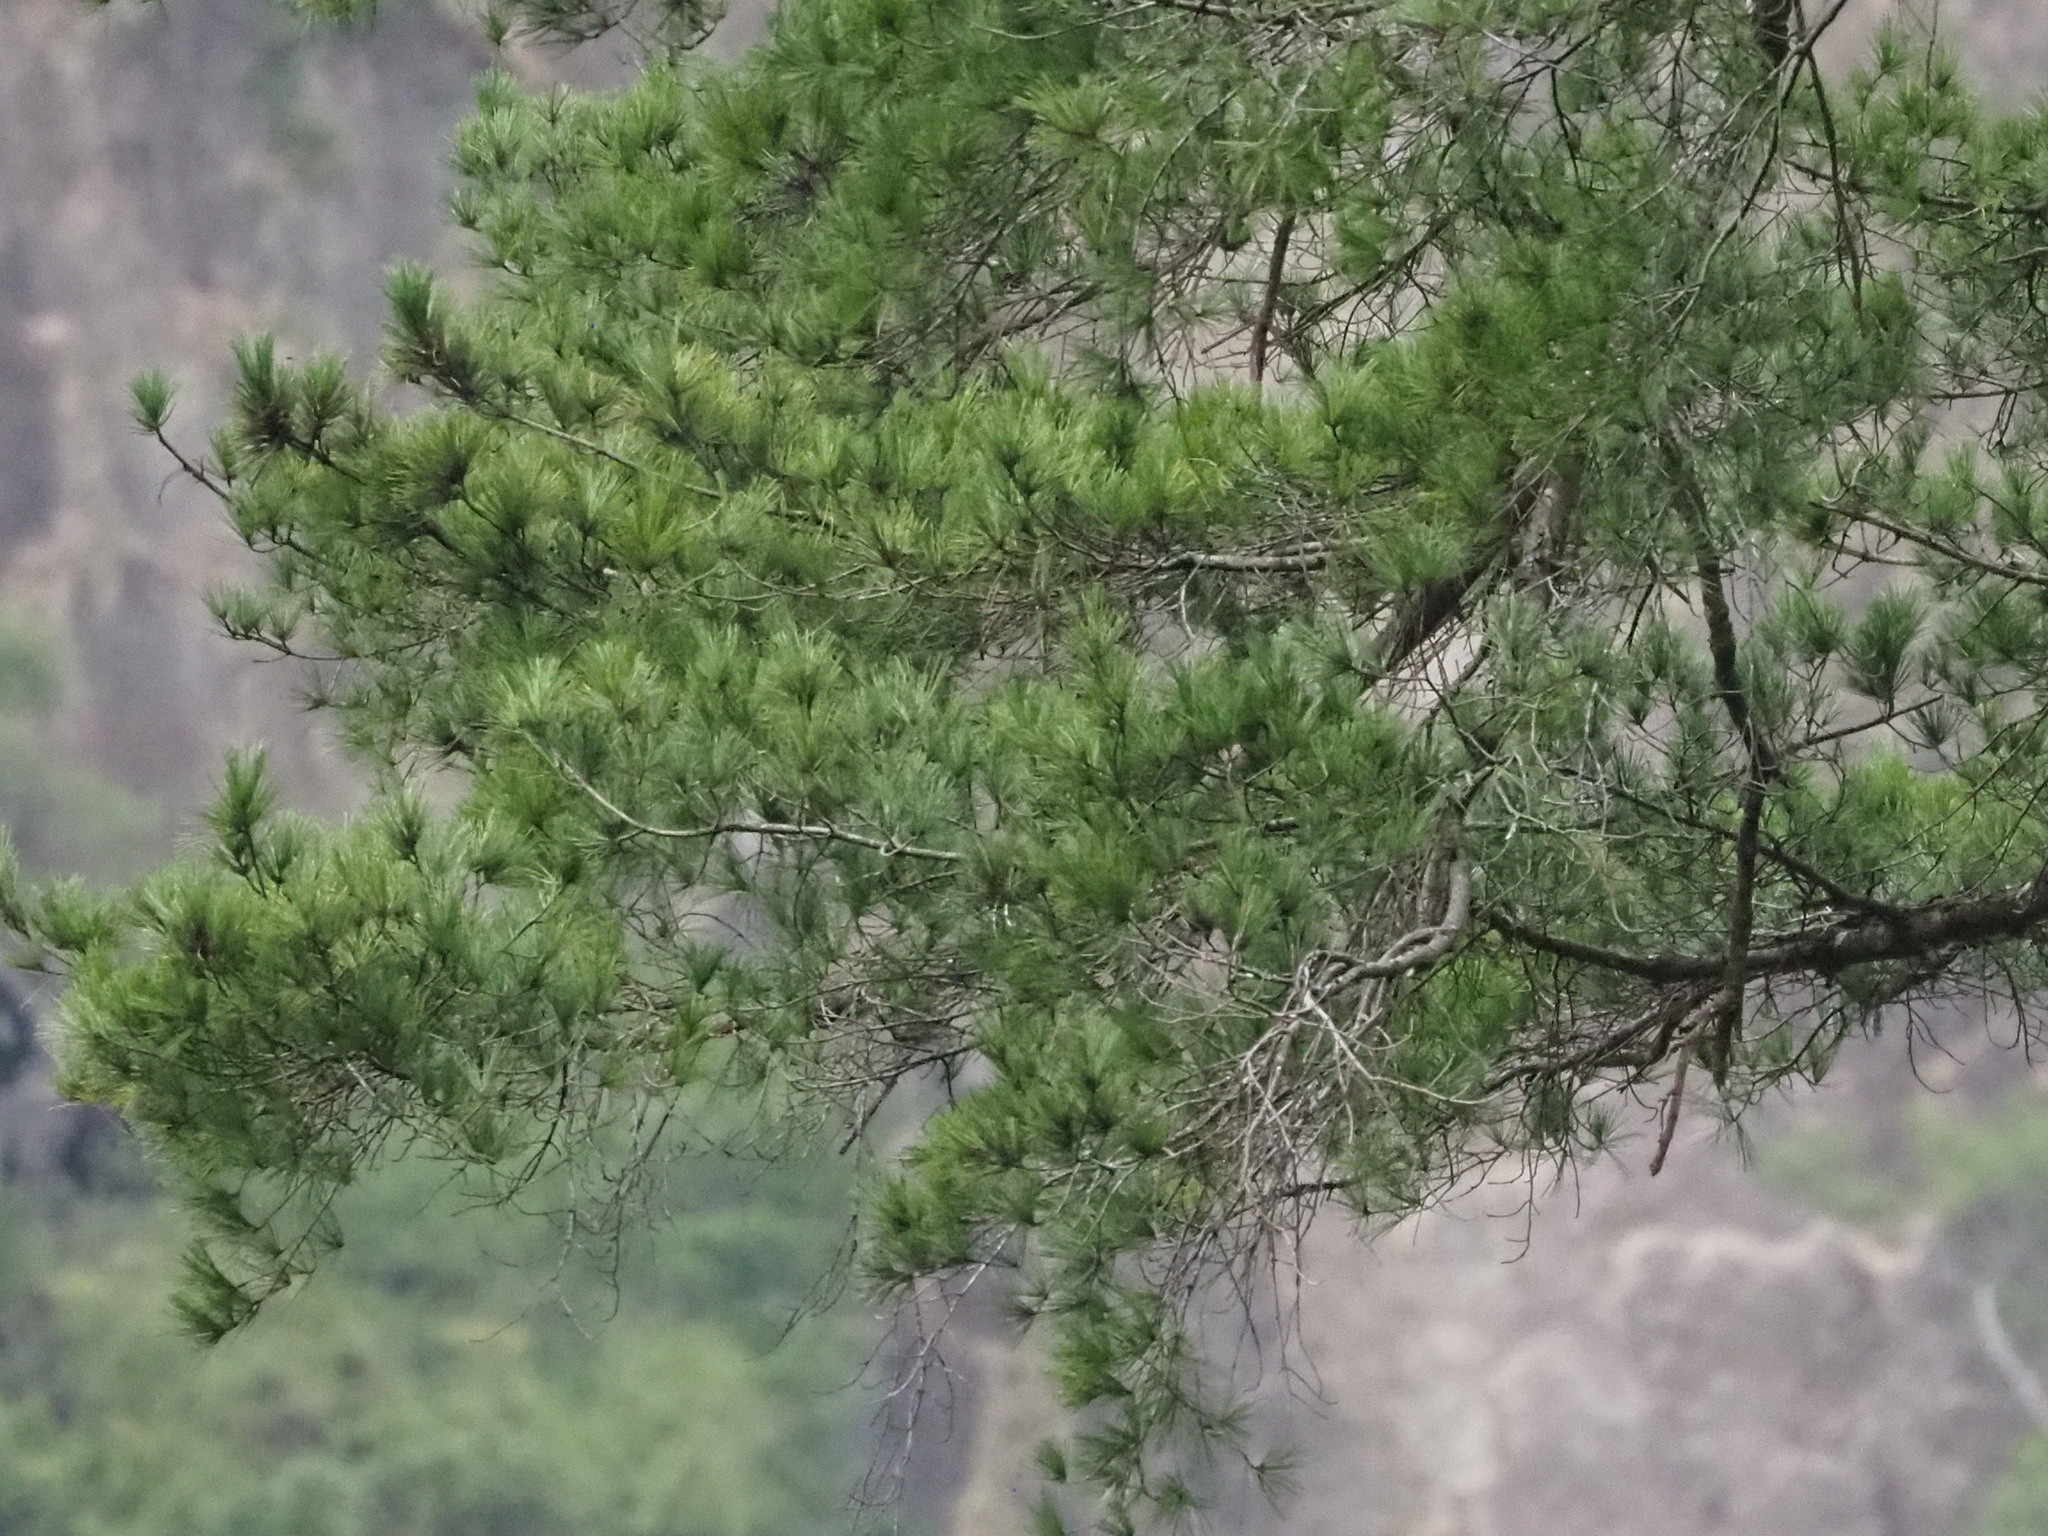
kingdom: Plantae
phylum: Tracheophyta
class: Pinopsida
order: Pinales
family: Pinaceae
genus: Pinus
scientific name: Pinus morrisonicola
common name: Taiwan white pine
